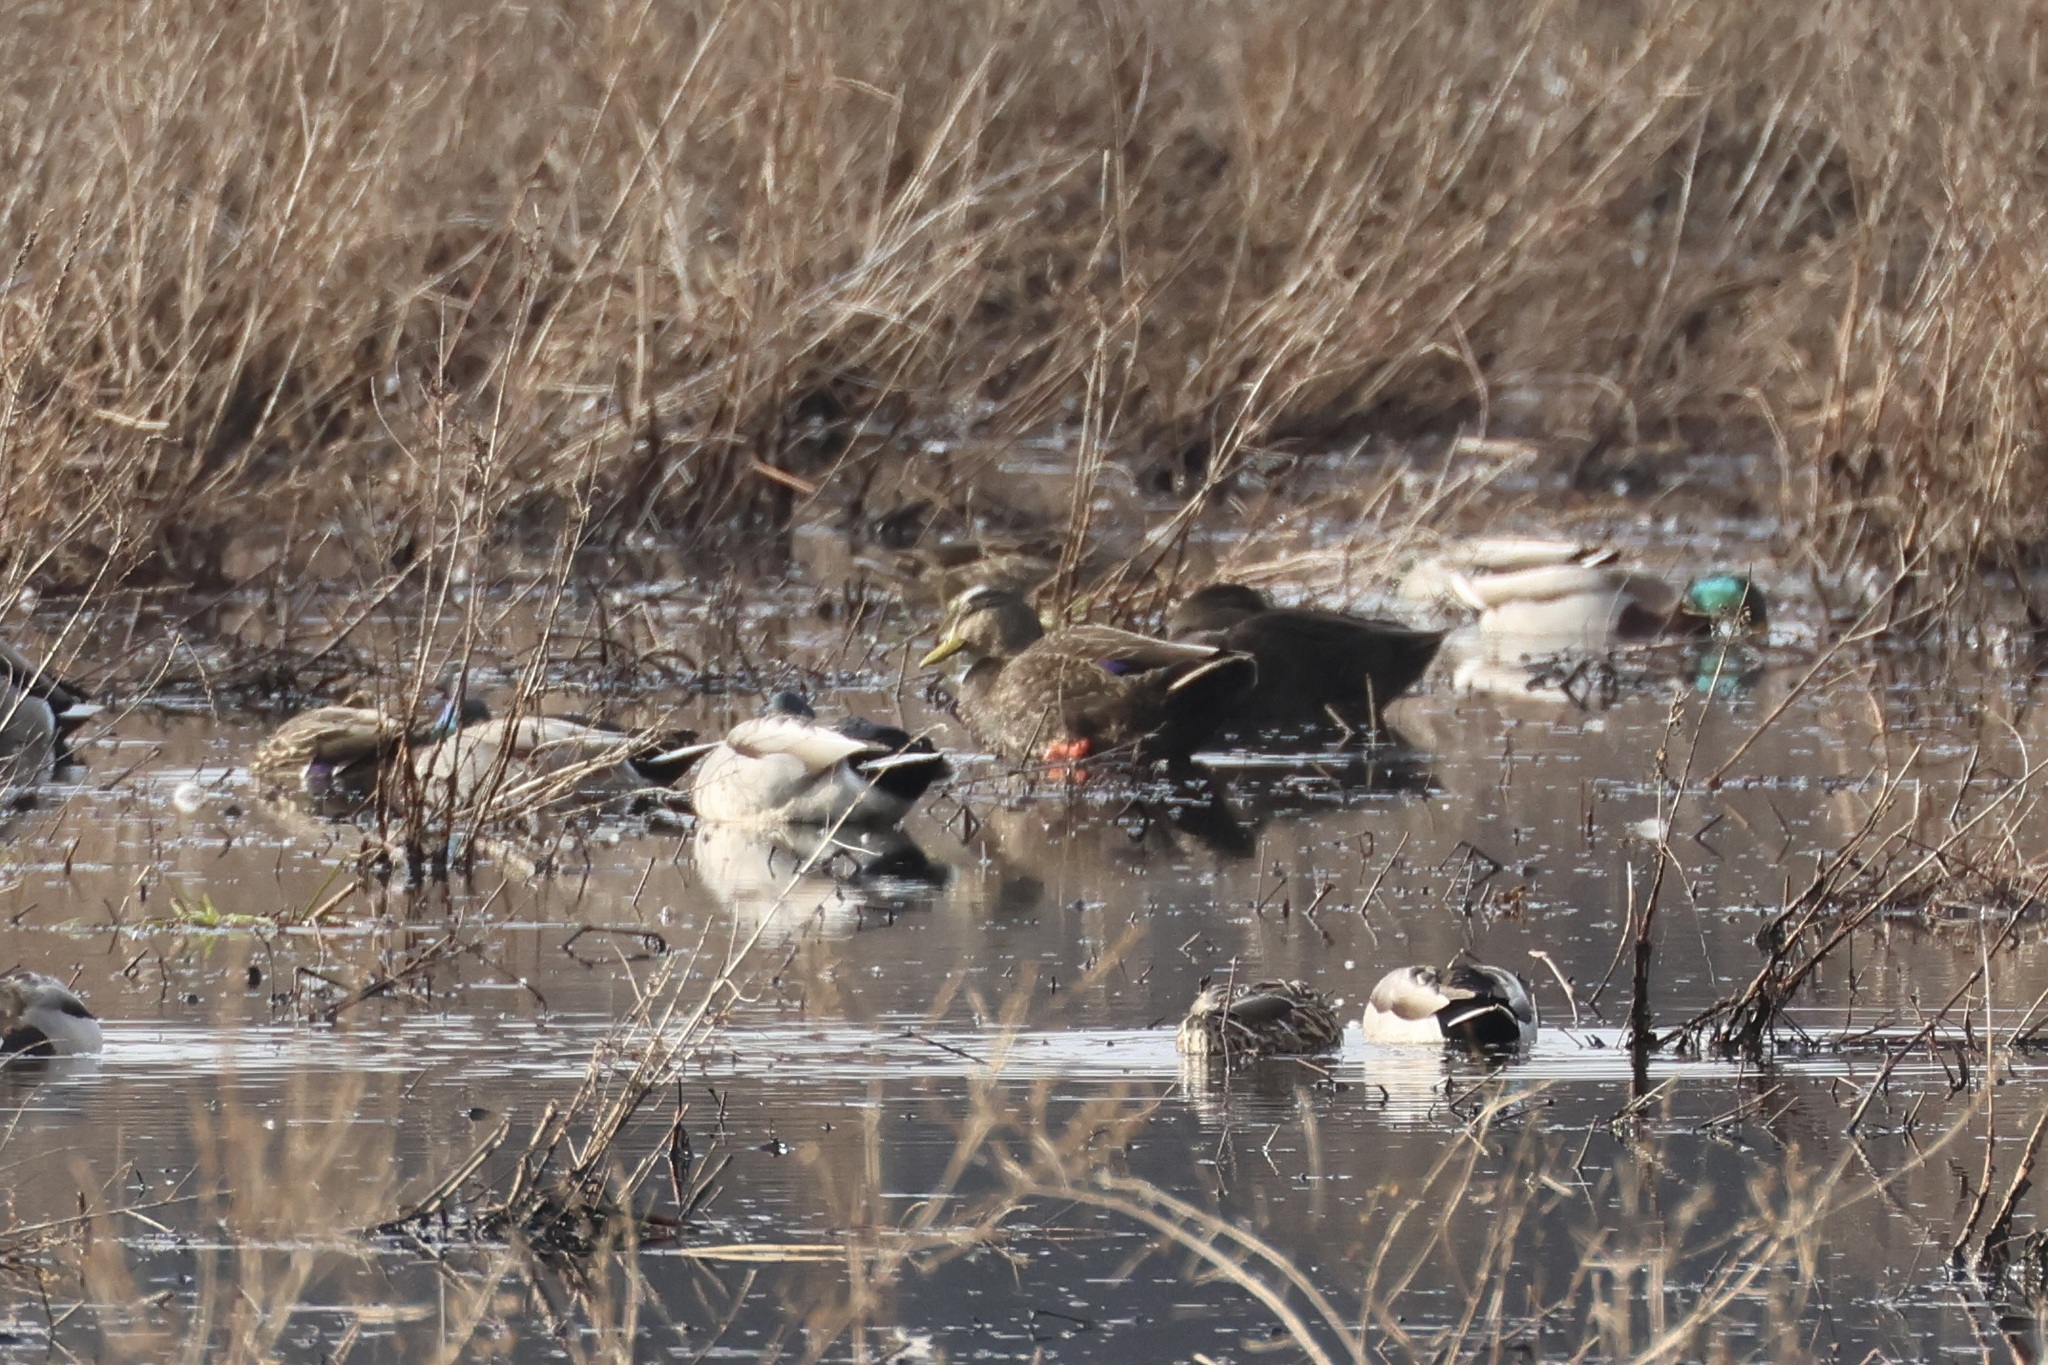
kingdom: Animalia
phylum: Chordata
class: Aves
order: Anseriformes
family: Anatidae
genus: Anas
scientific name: Anas rubripes
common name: American black duck
